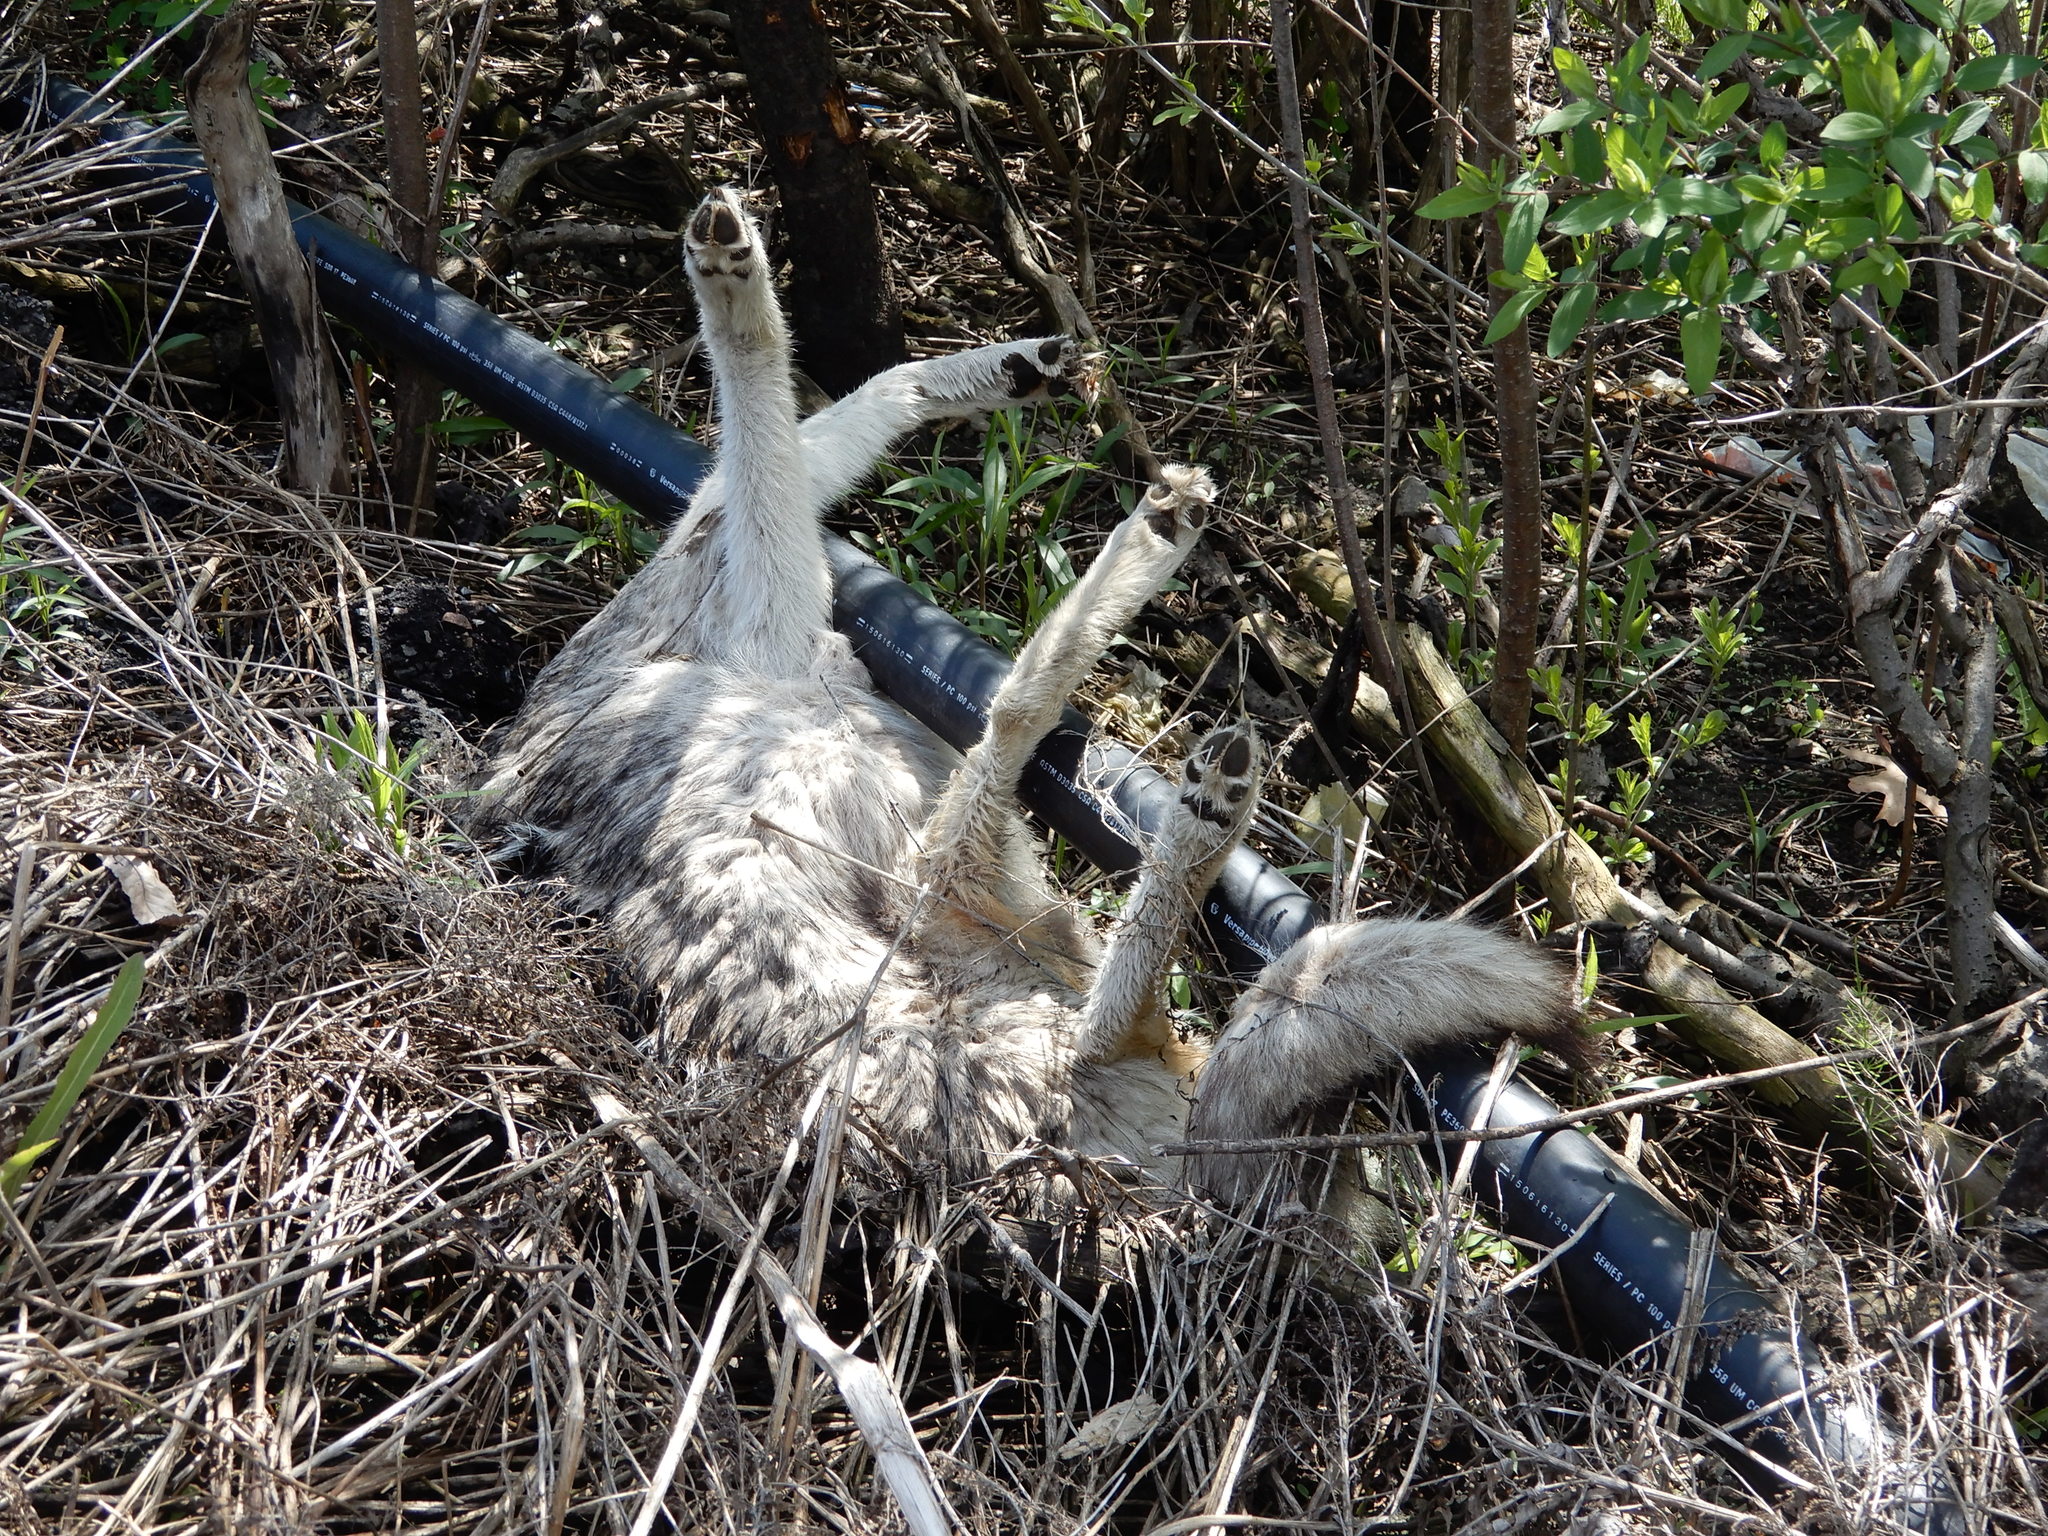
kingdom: Animalia
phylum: Chordata
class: Mammalia
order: Carnivora
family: Canidae
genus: Canis
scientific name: Canis latrans
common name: Coyote
